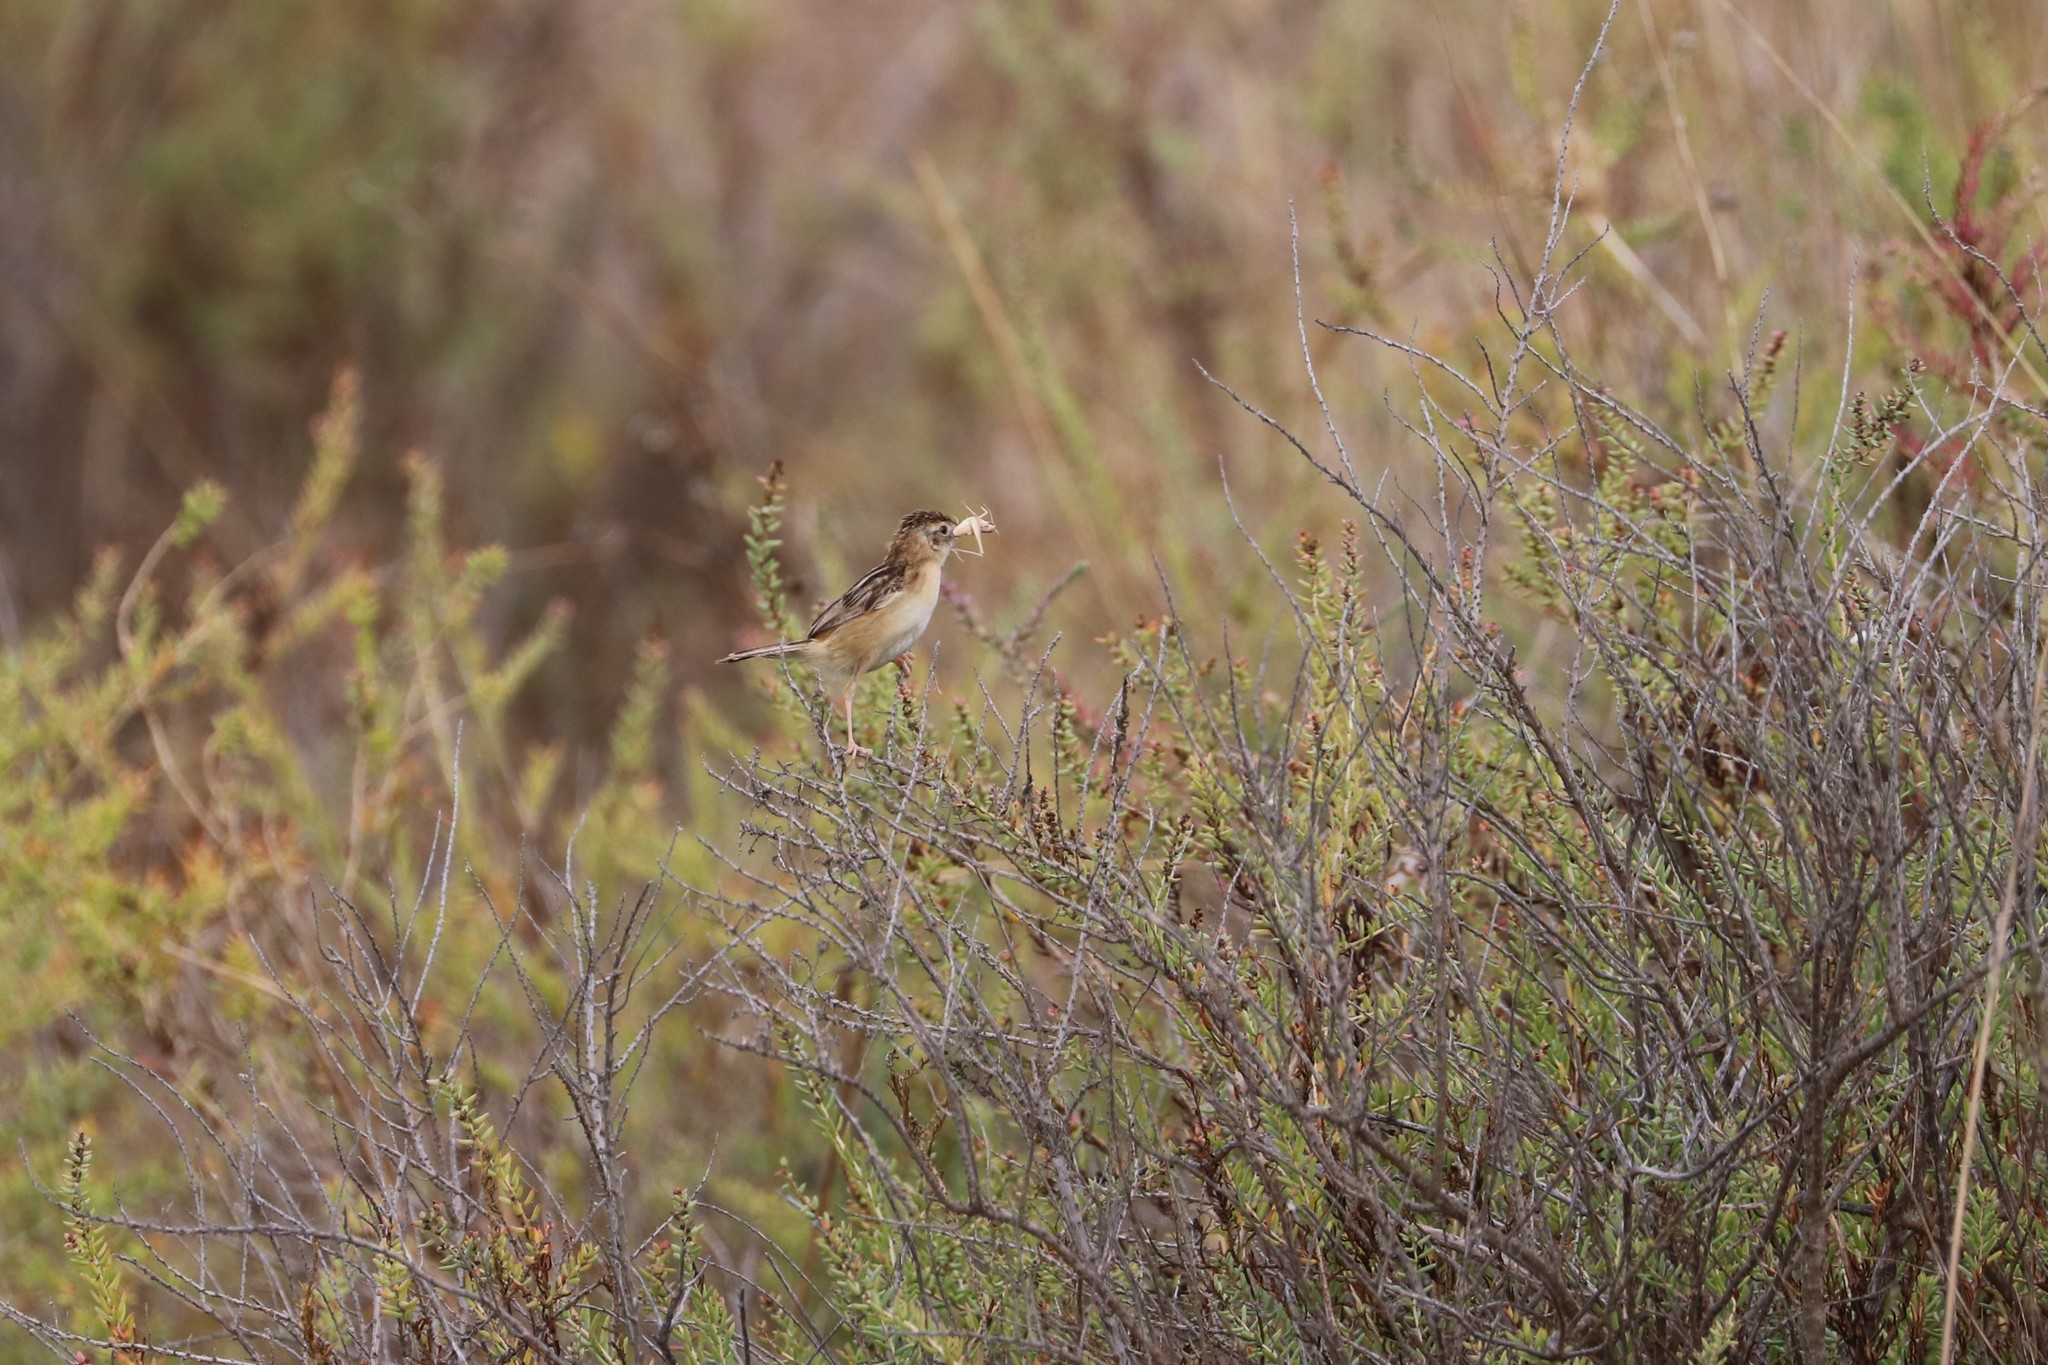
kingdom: Animalia
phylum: Chordata
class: Aves
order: Passeriformes
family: Cisticolidae
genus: Cisticola
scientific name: Cisticola juncidis
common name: Zitting cisticola
